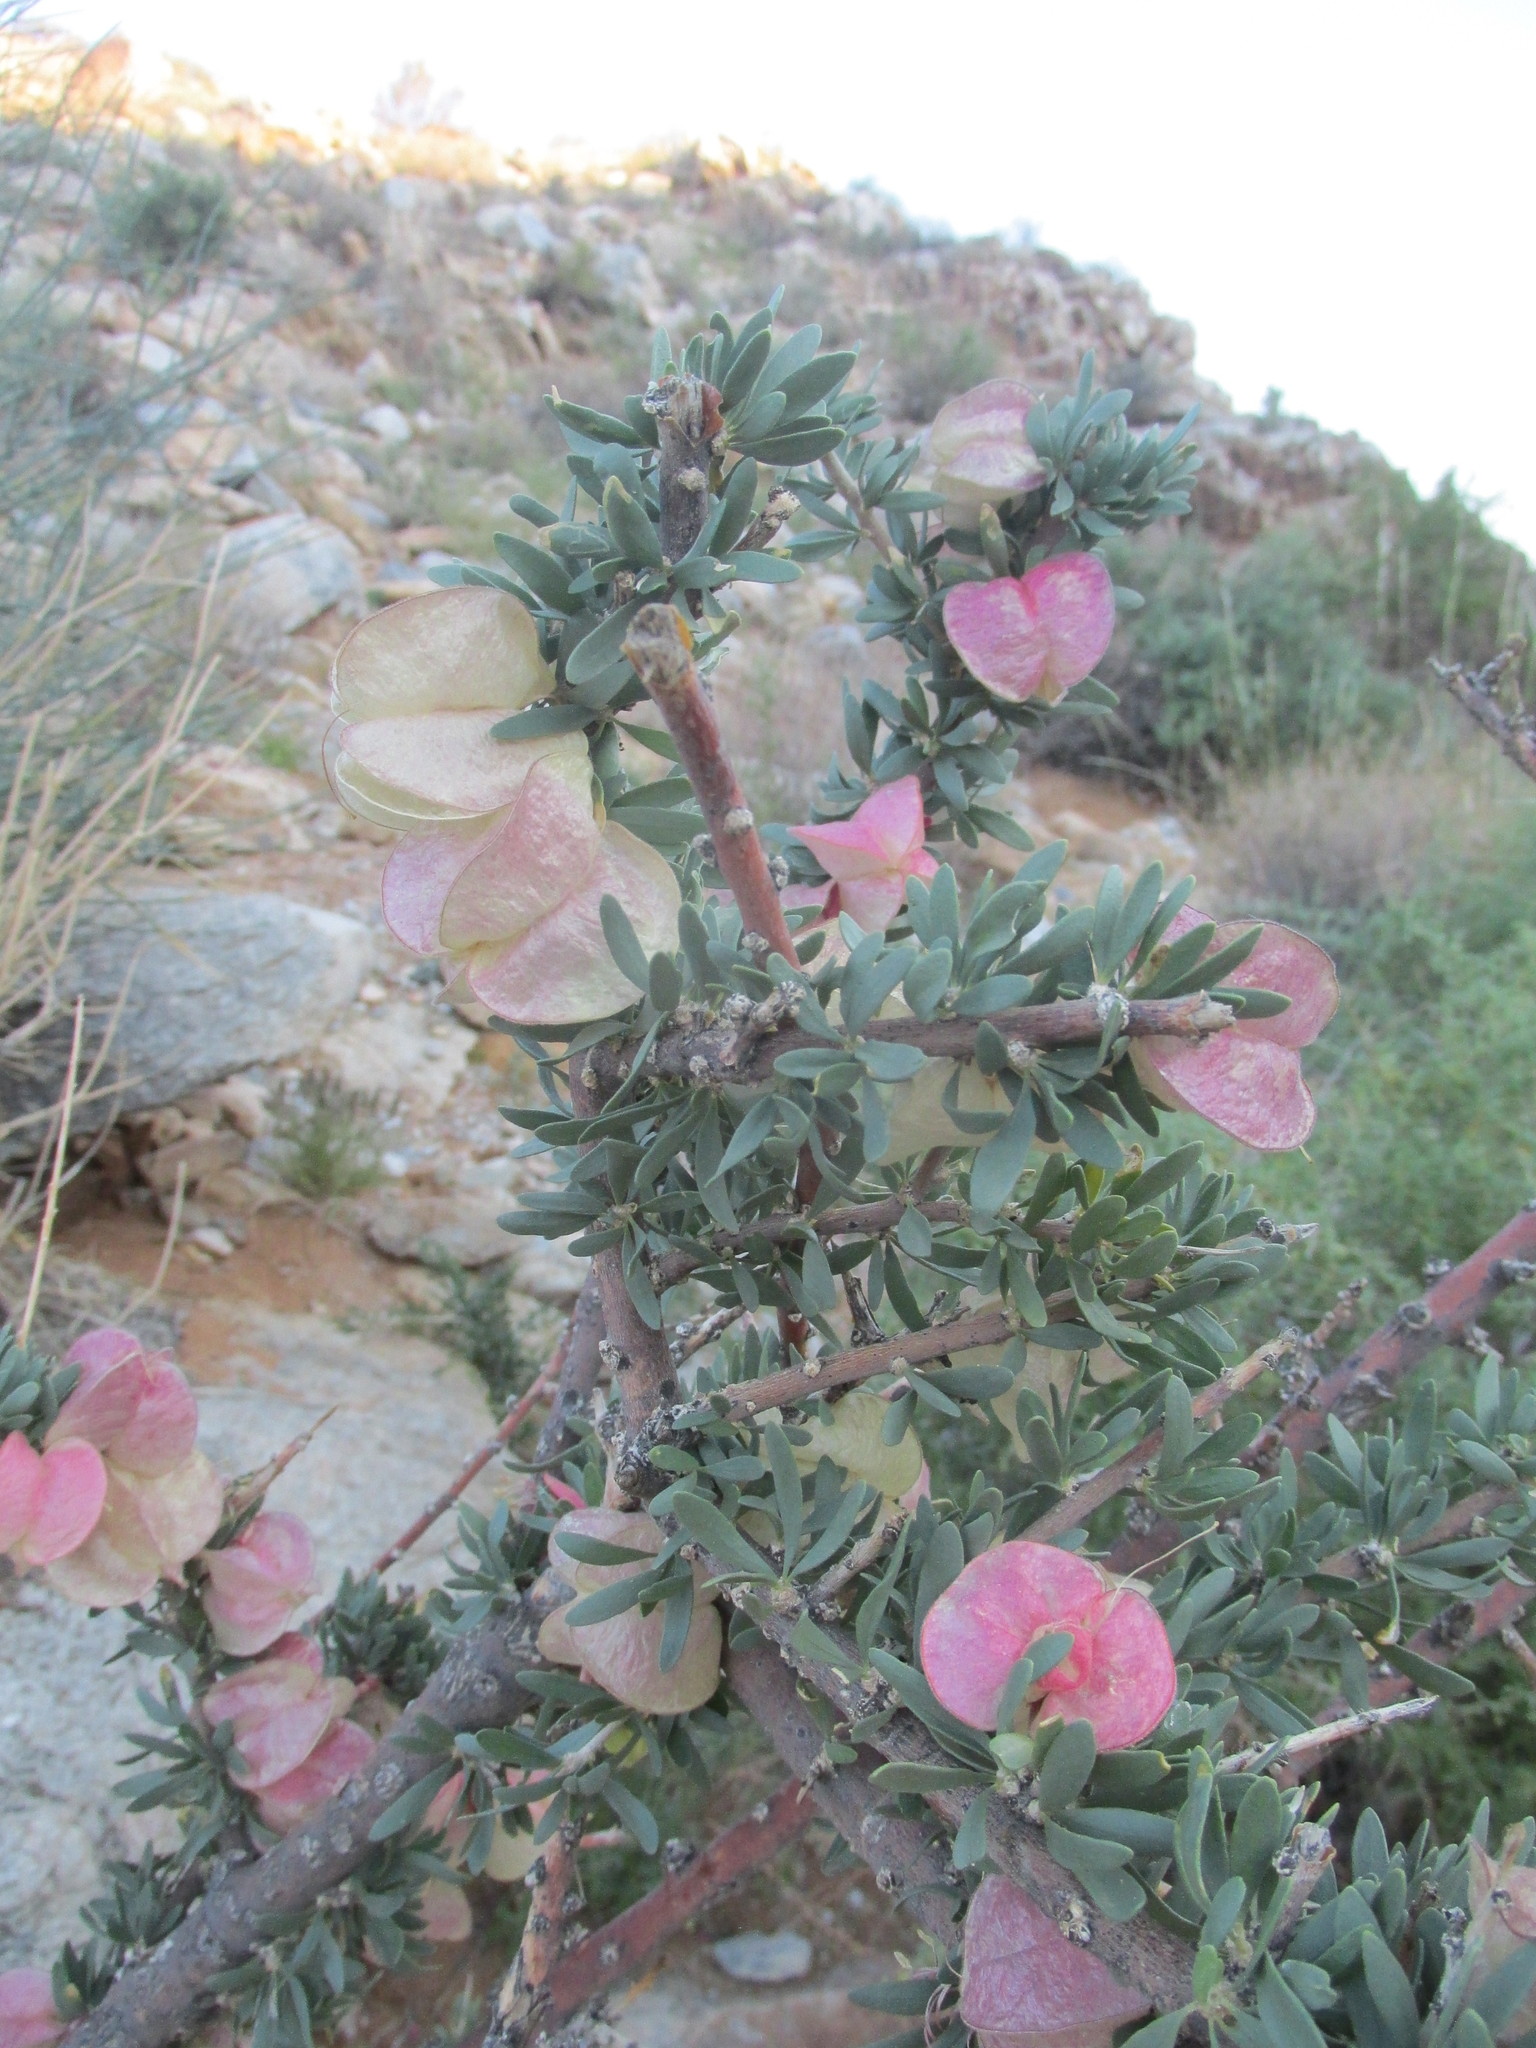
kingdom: Plantae
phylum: Tracheophyta
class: Magnoliopsida
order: Sapindales
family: Meliaceae
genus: Nymania
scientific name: Nymania capensis
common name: Chinese lantern tree
